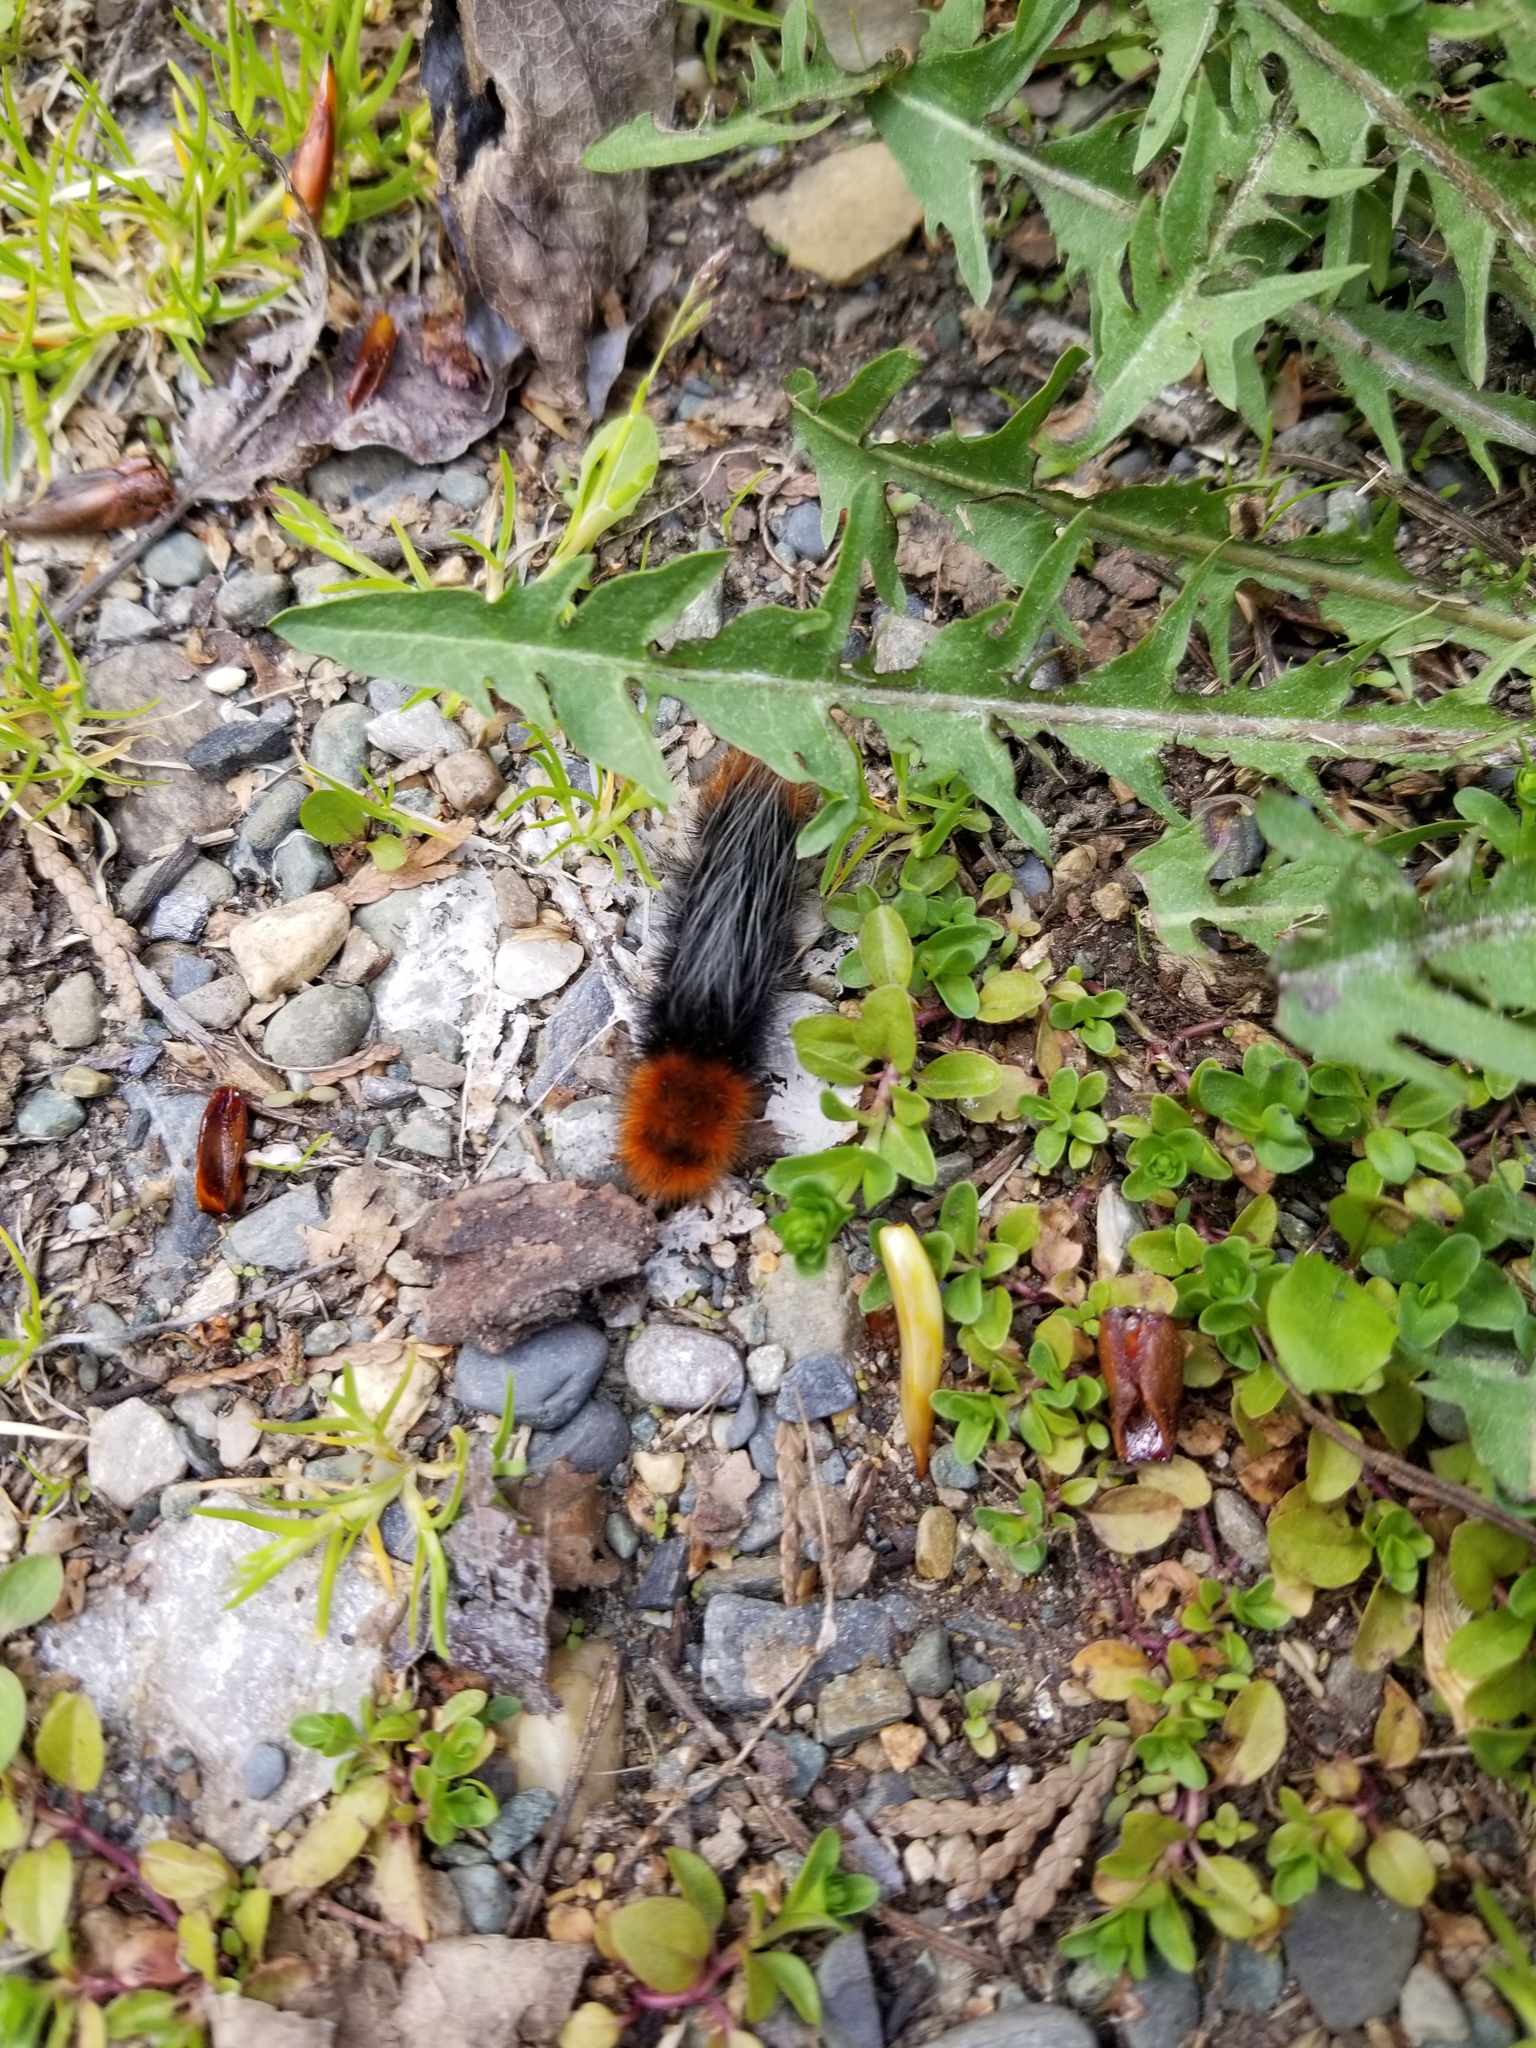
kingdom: Animalia
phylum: Arthropoda
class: Insecta
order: Lepidoptera
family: Erebidae
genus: Arctia
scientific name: Arctia tigrina
